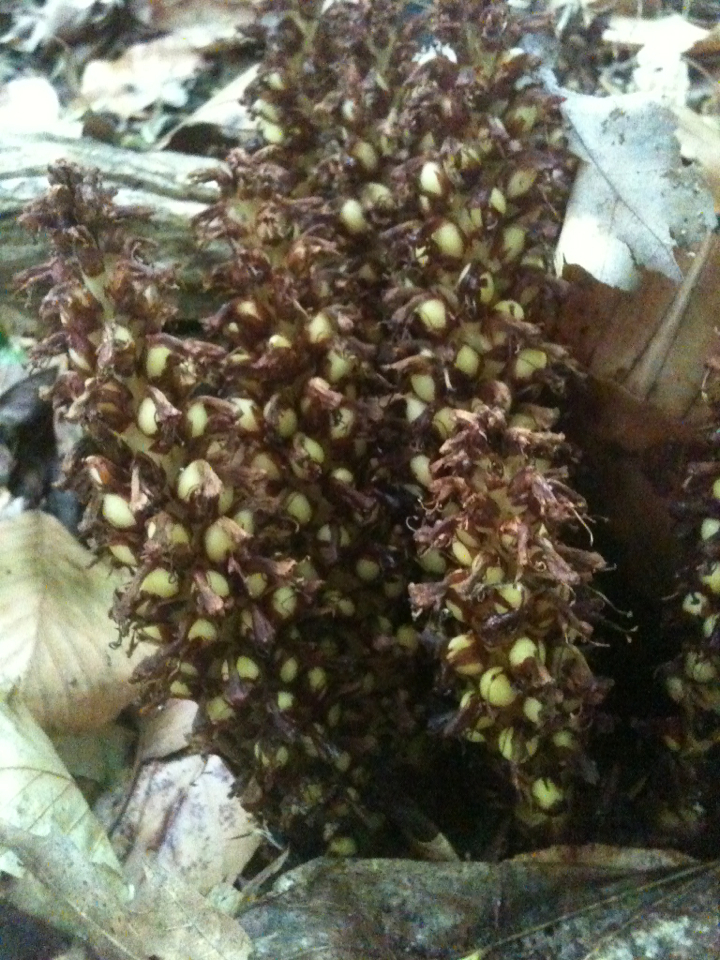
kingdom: Plantae
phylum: Tracheophyta
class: Magnoliopsida
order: Lamiales
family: Orobanchaceae
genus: Conopholis
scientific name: Conopholis americana
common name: American cancer-root
